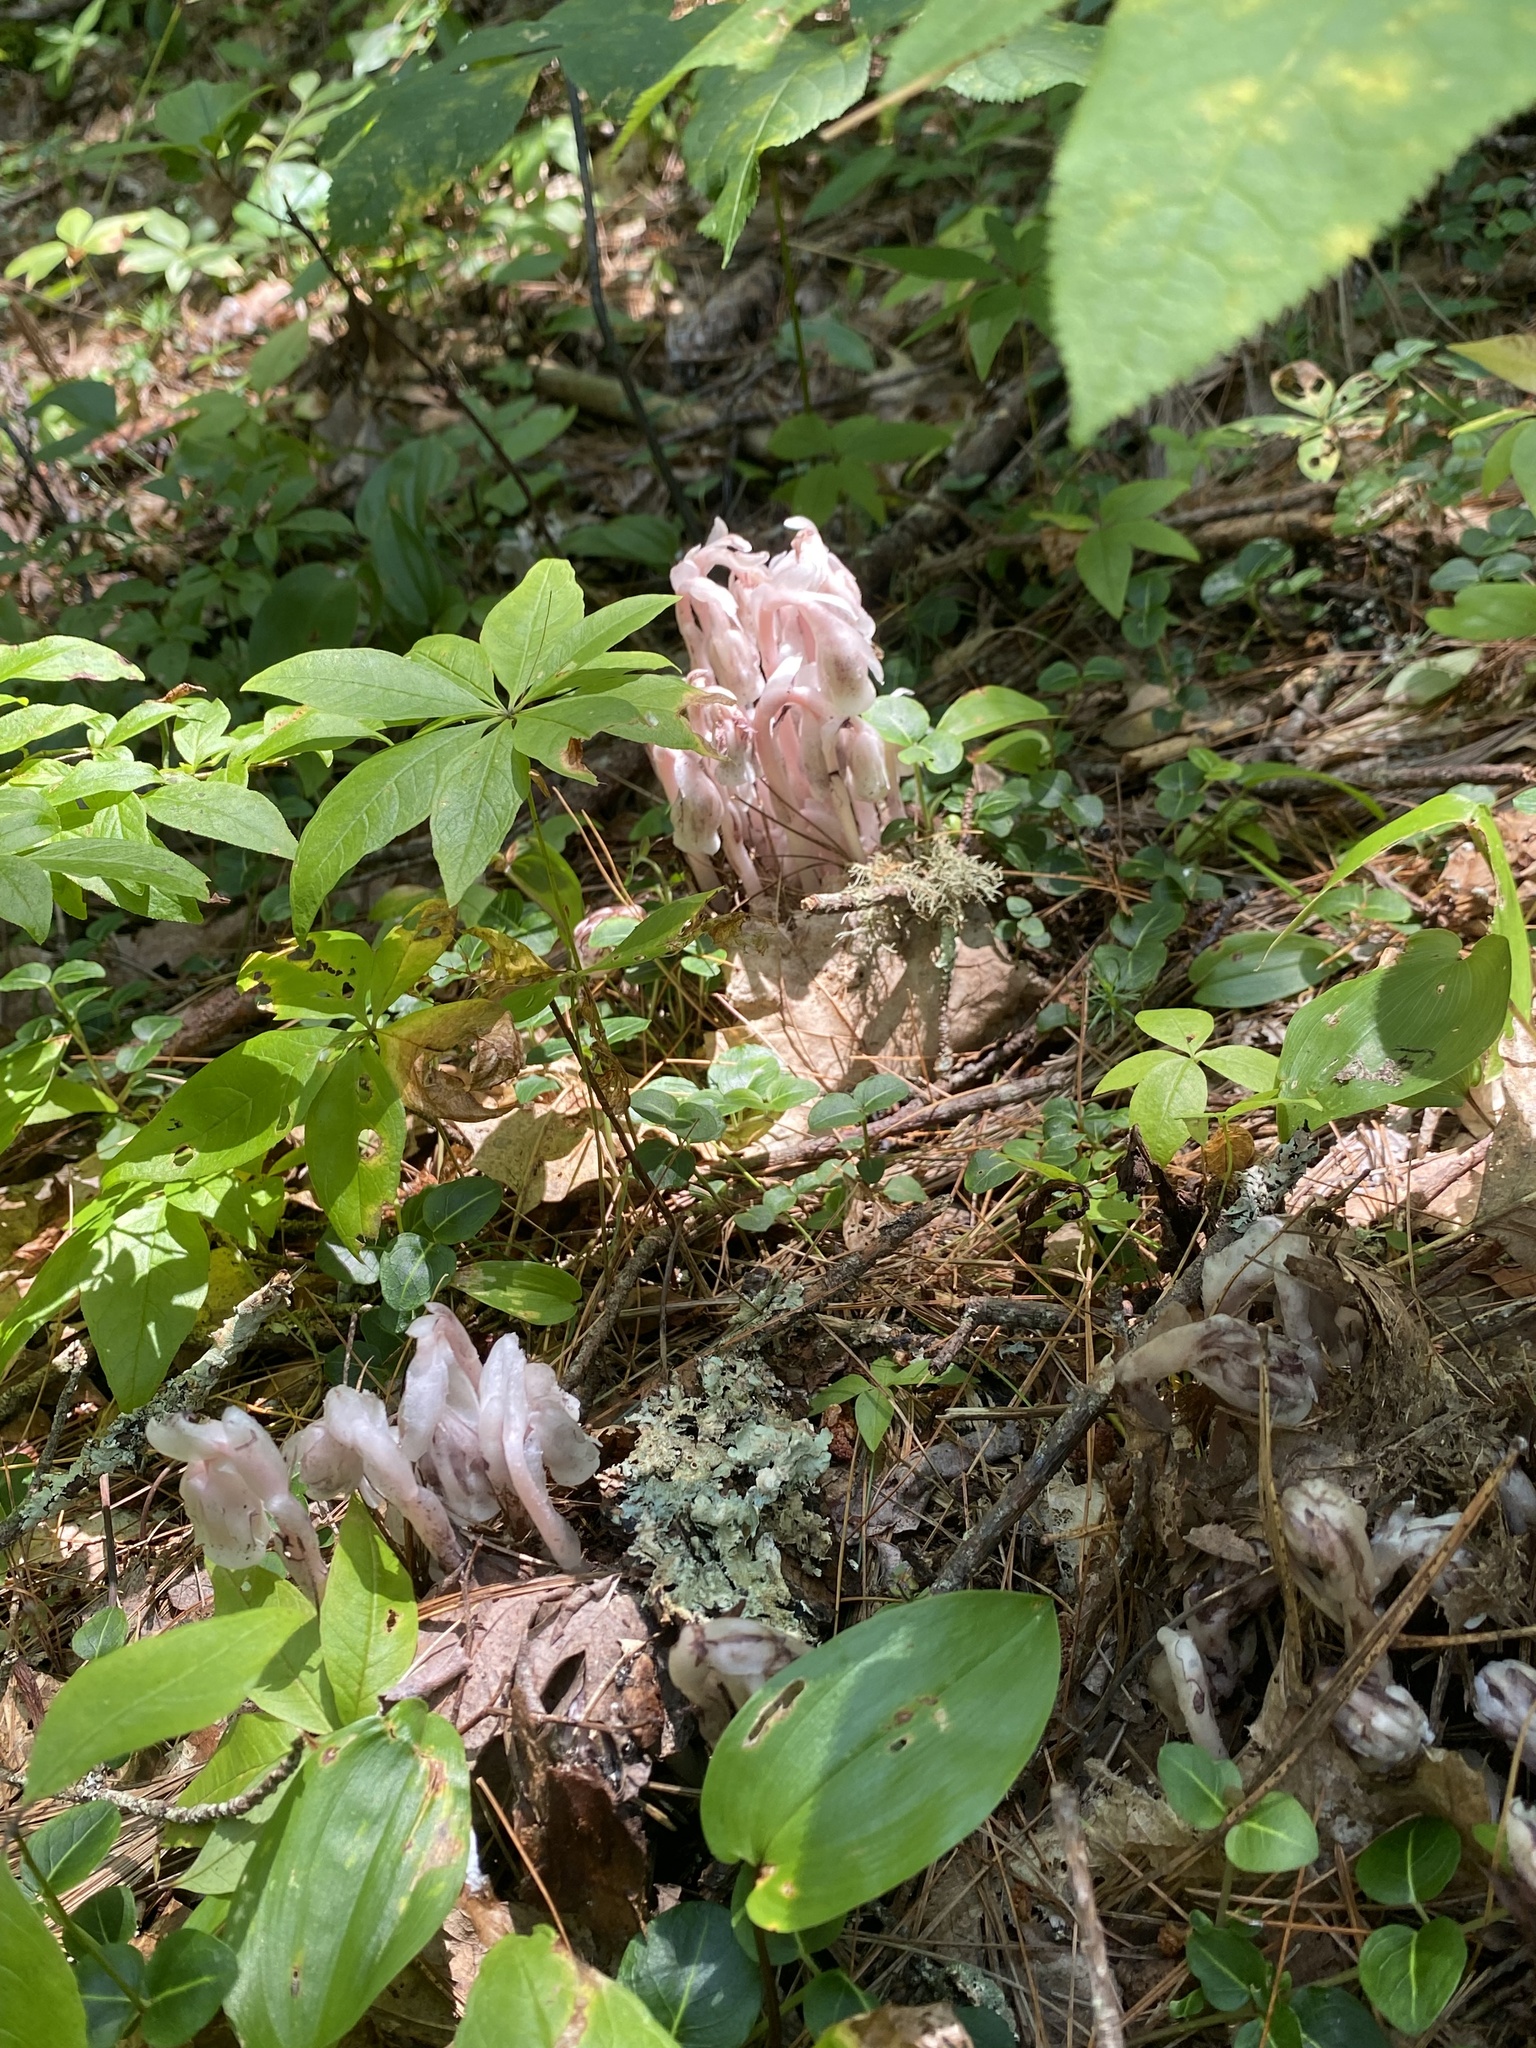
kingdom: Plantae
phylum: Tracheophyta
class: Magnoliopsida
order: Ericales
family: Ericaceae
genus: Monotropa
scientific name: Monotropa uniflora
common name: Convulsion root
